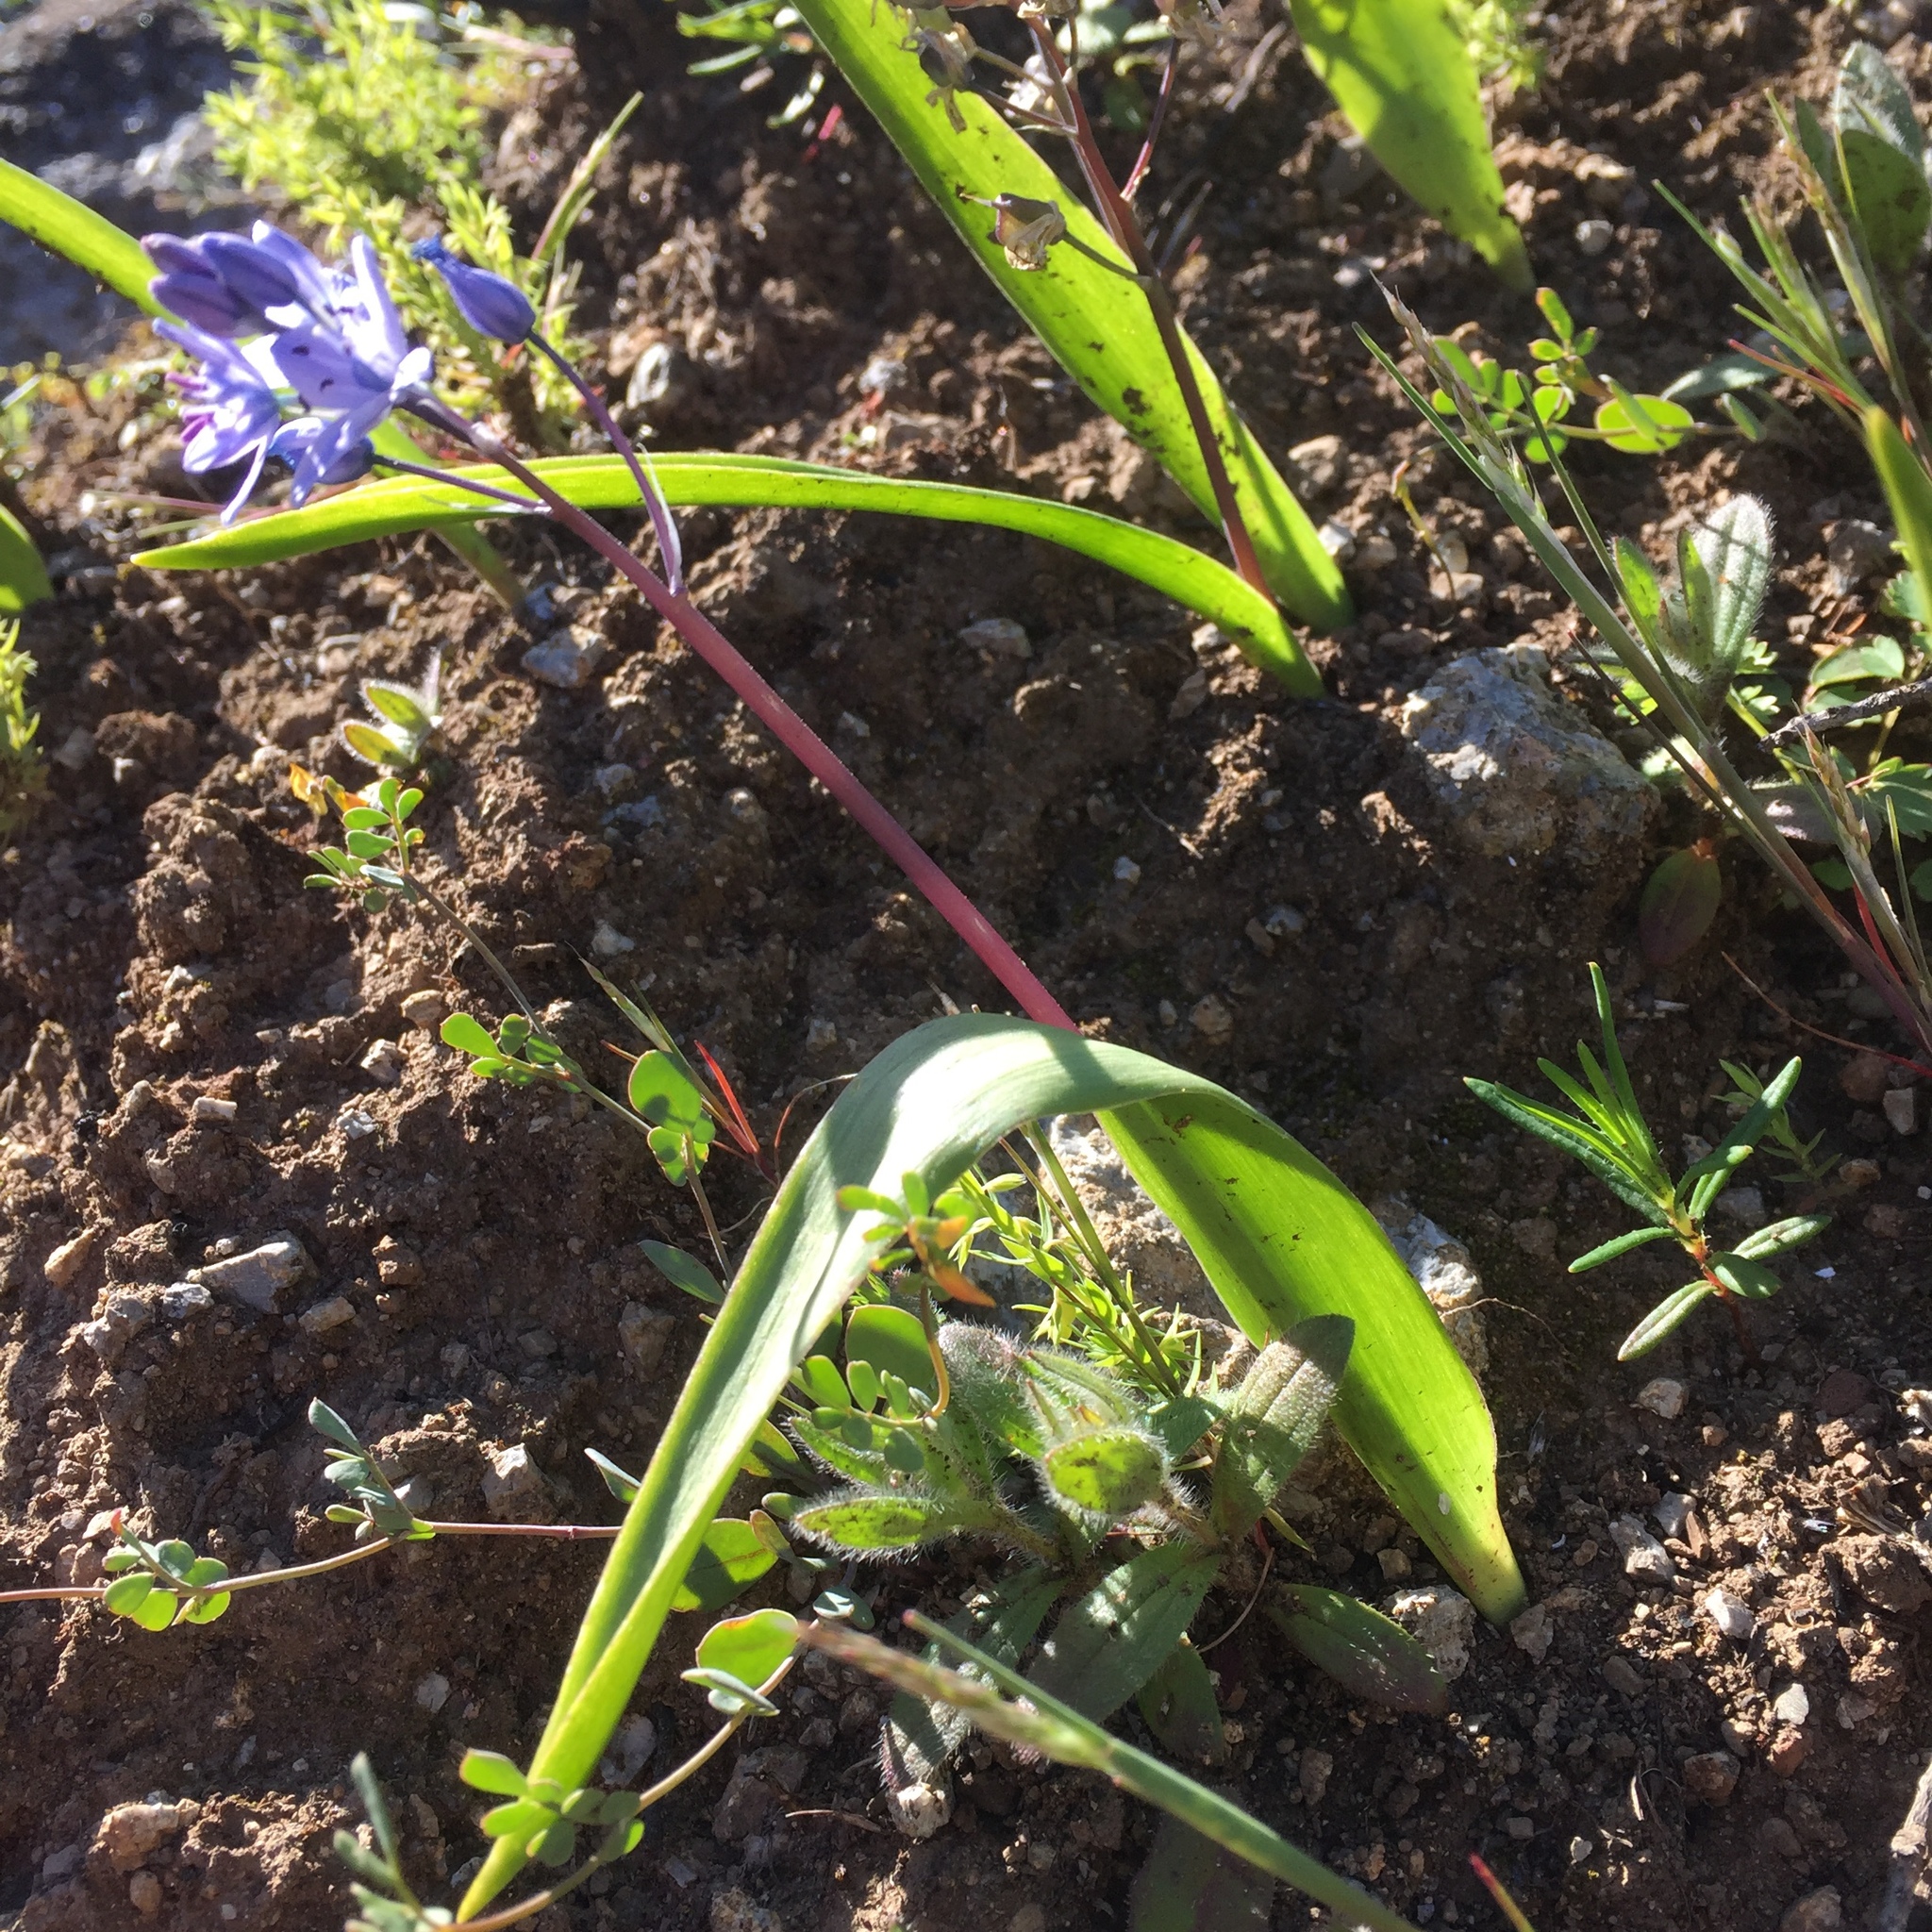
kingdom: Plantae
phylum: Tracheophyta
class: Liliopsida
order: Asparagales
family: Asparagaceae
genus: Scilla
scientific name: Scilla monophyllos
